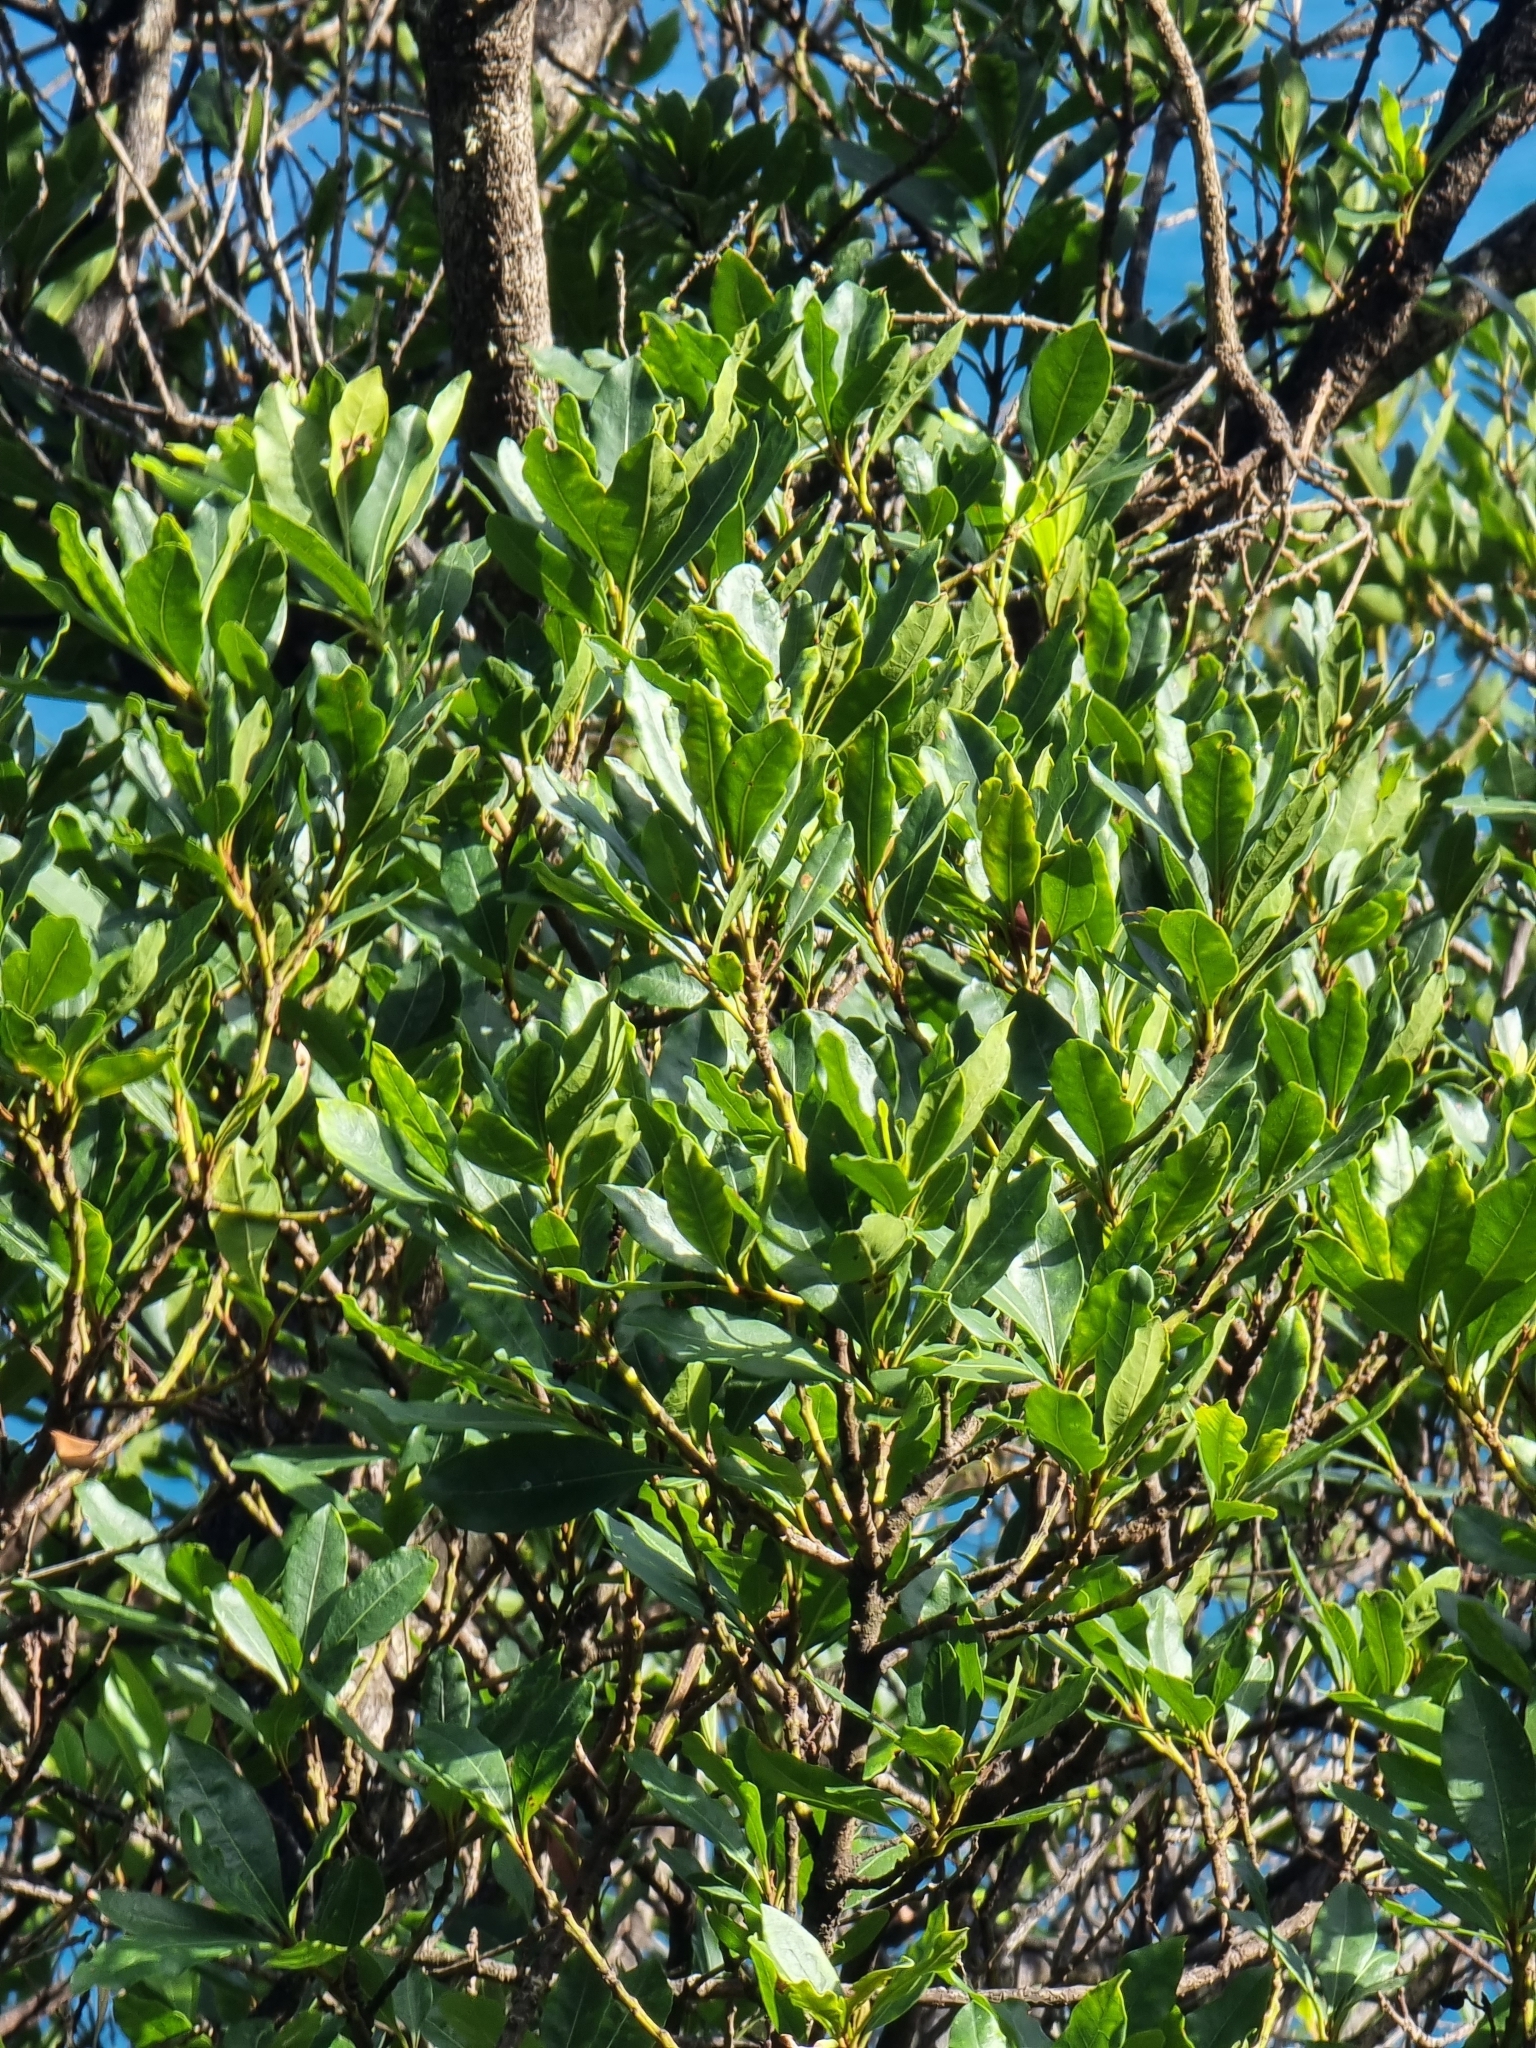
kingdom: Plantae
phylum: Tracheophyta
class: Magnoliopsida
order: Fagales
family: Myricaceae
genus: Morella
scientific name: Morella faya
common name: Firetree
